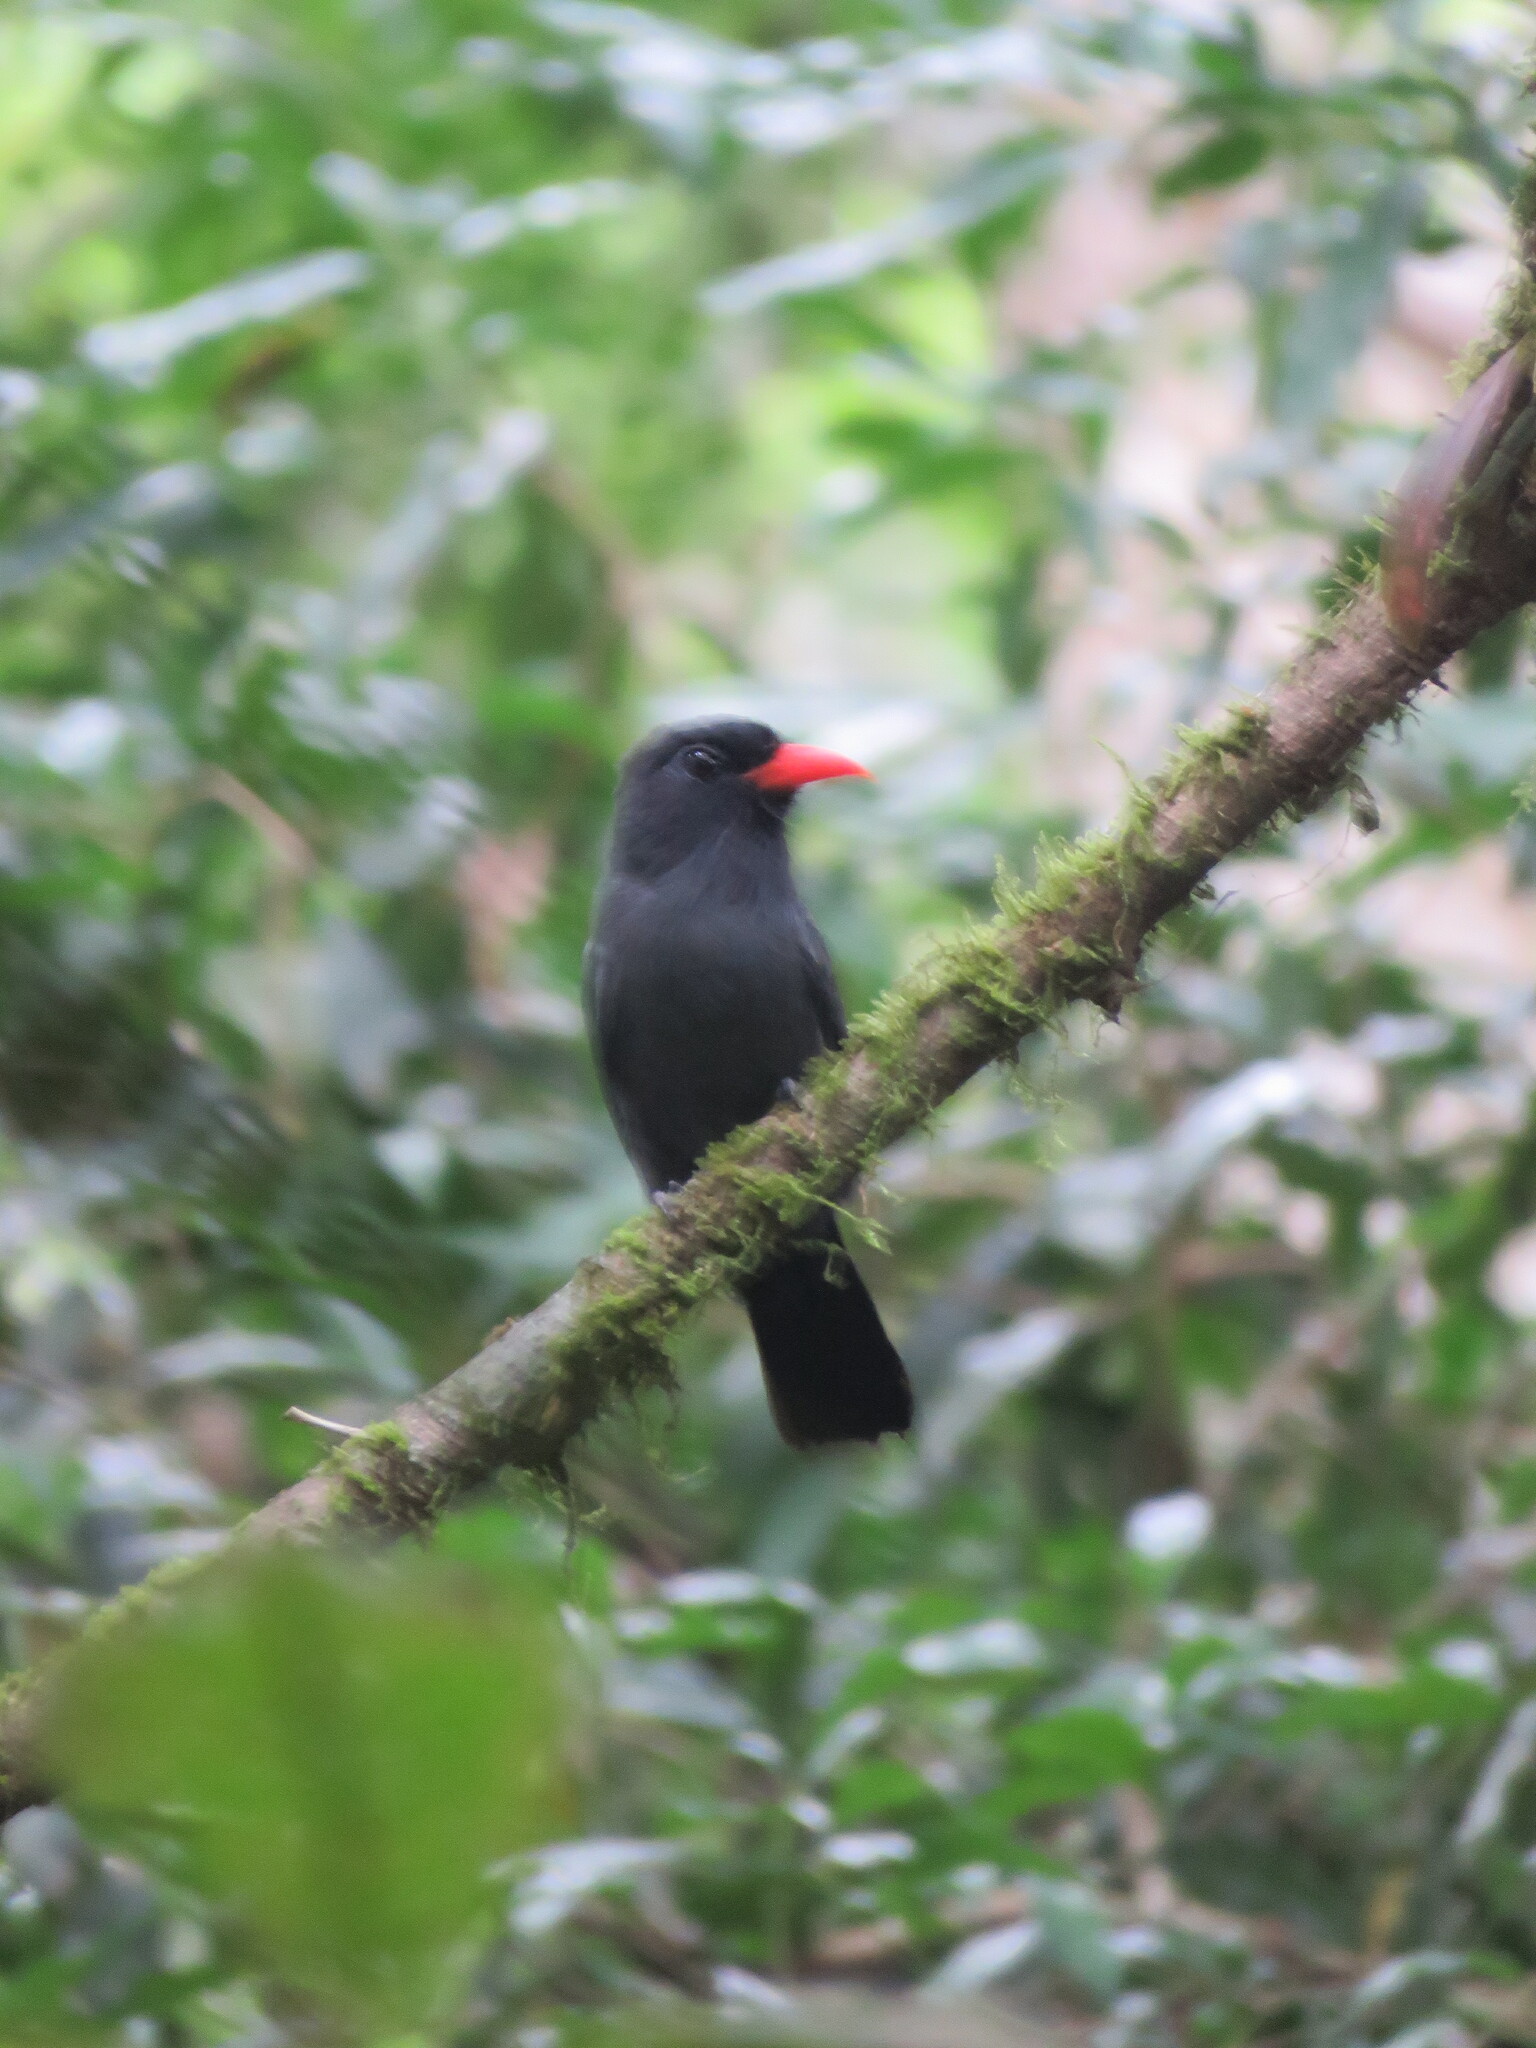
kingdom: Animalia
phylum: Chordata
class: Aves
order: Piciformes
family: Bucconidae
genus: Monasa
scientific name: Monasa nigrifrons
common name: Black-fronted nunbird
